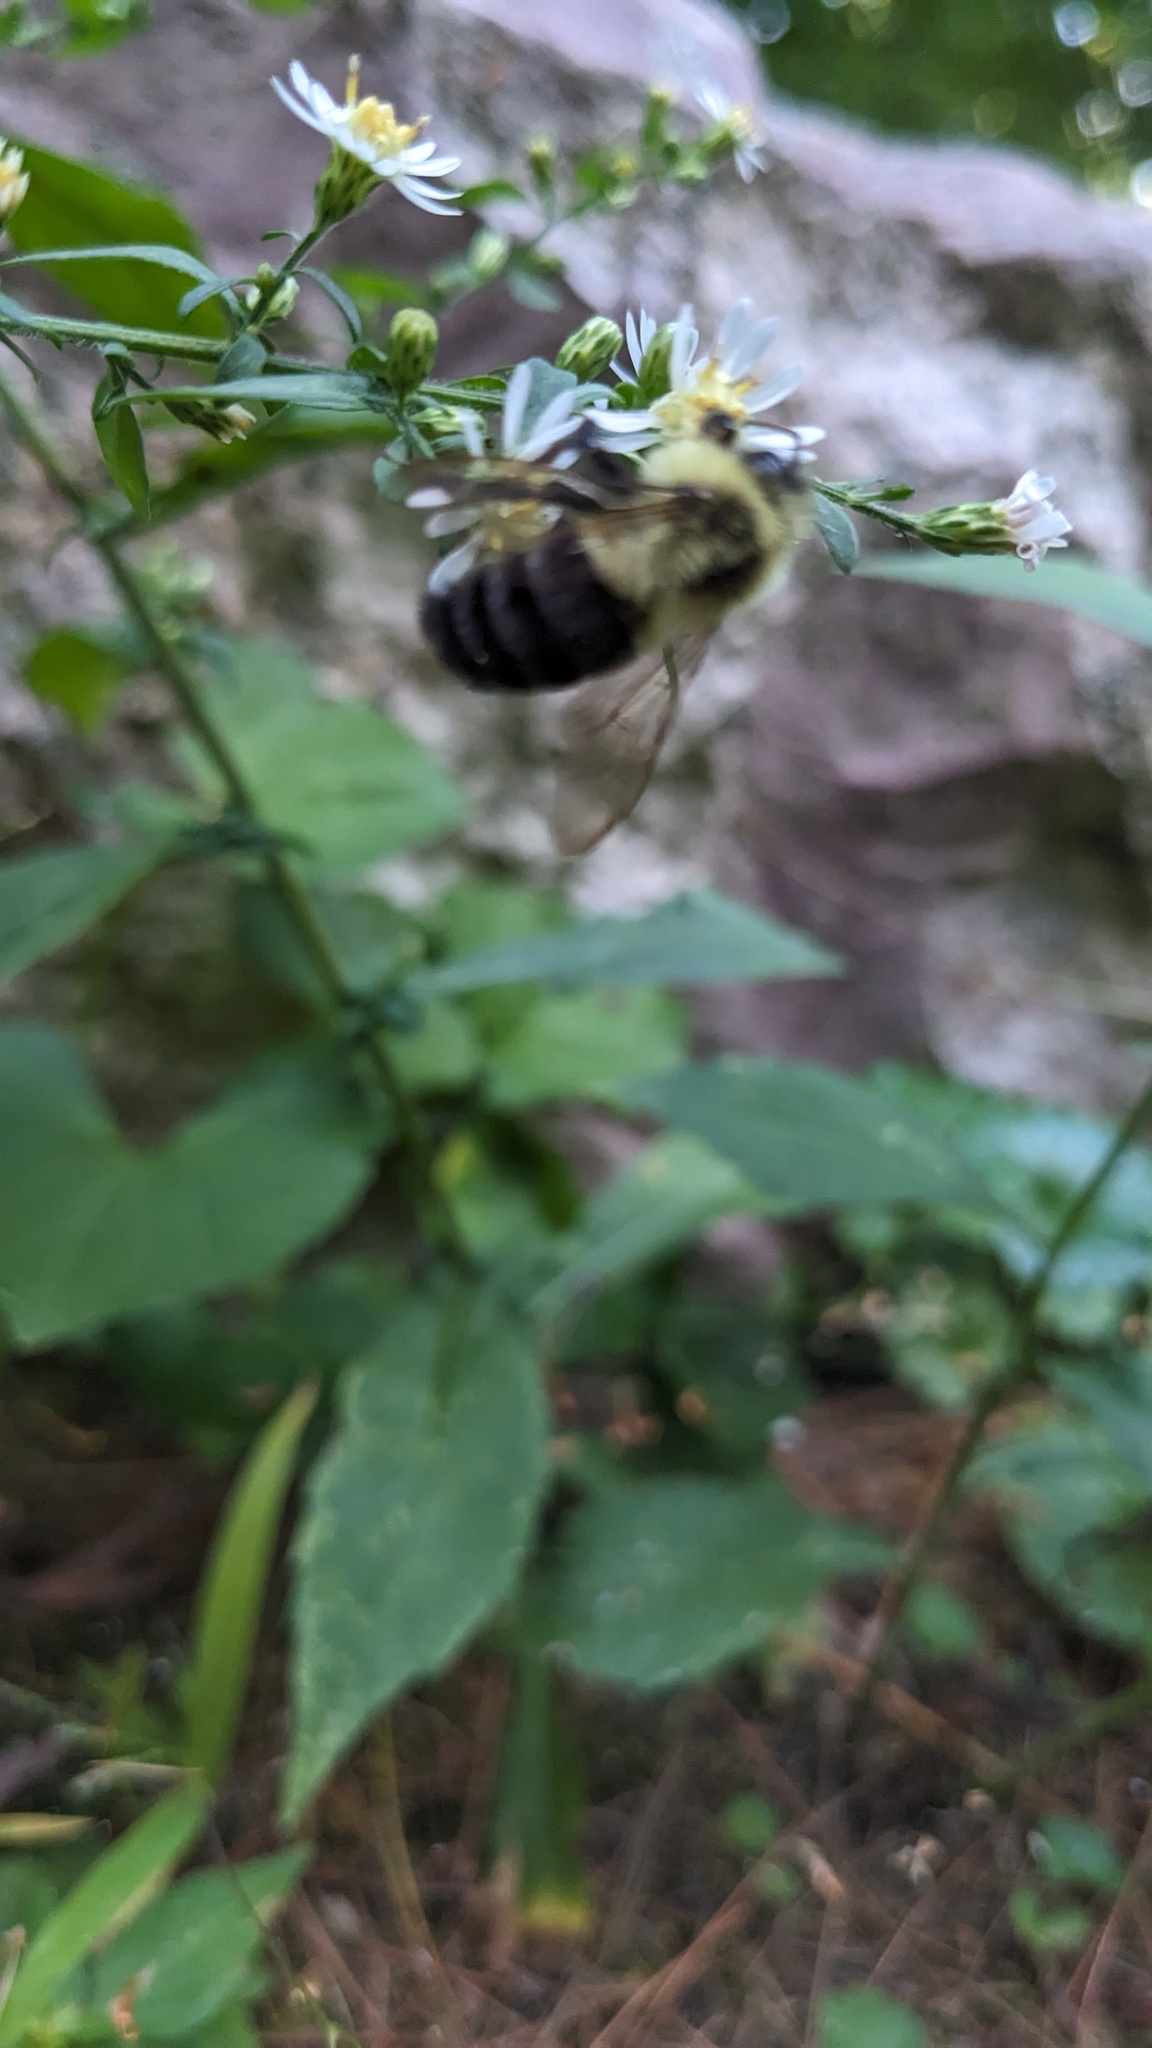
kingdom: Animalia
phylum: Arthropoda
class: Insecta
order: Hymenoptera
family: Apidae
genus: Bombus
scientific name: Bombus impatiens
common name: Common eastern bumble bee
